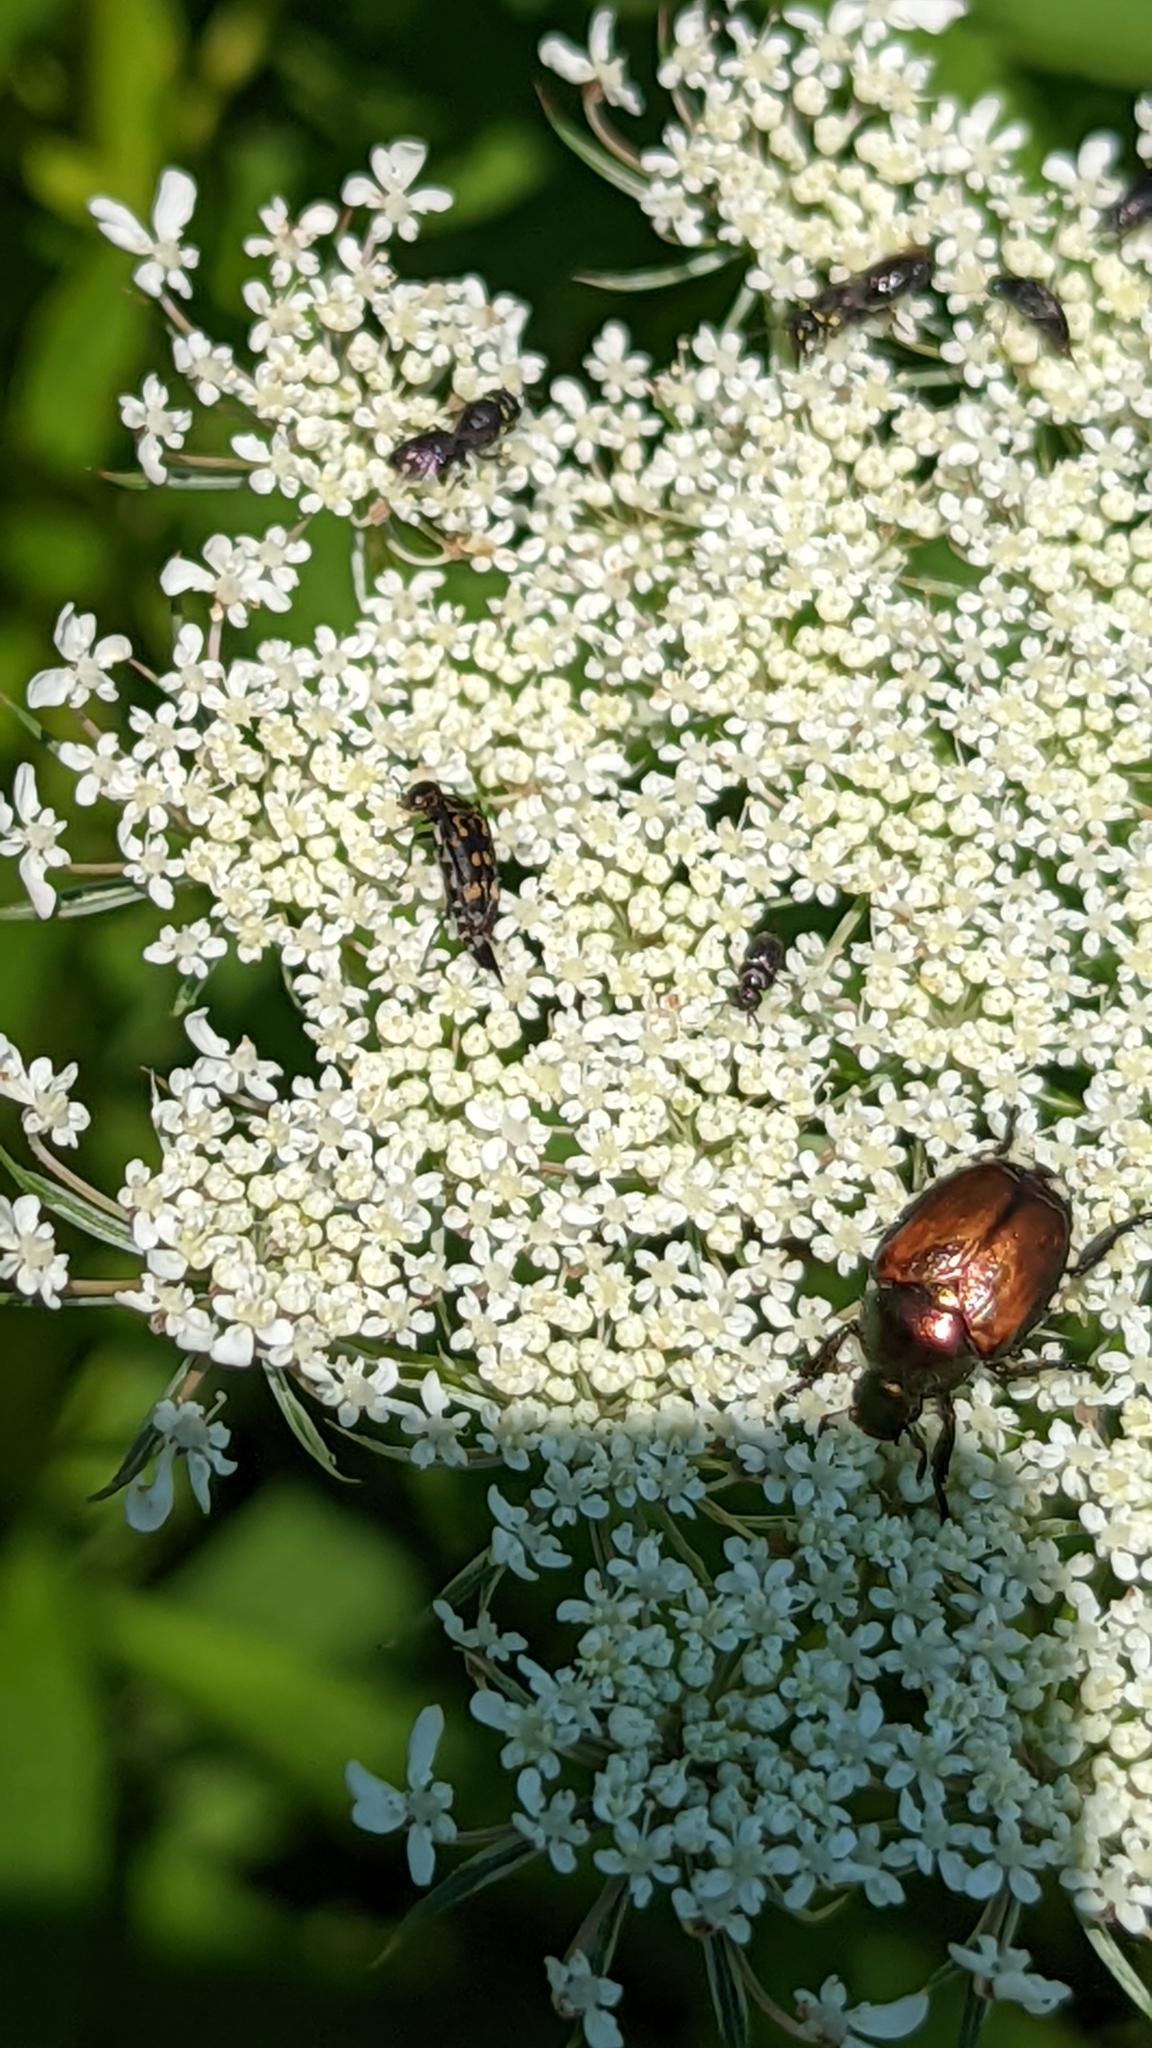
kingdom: Animalia
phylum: Arthropoda
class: Insecta
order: Coleoptera
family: Scarabaeidae
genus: Popillia
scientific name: Popillia japonica
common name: Japanese beetle
